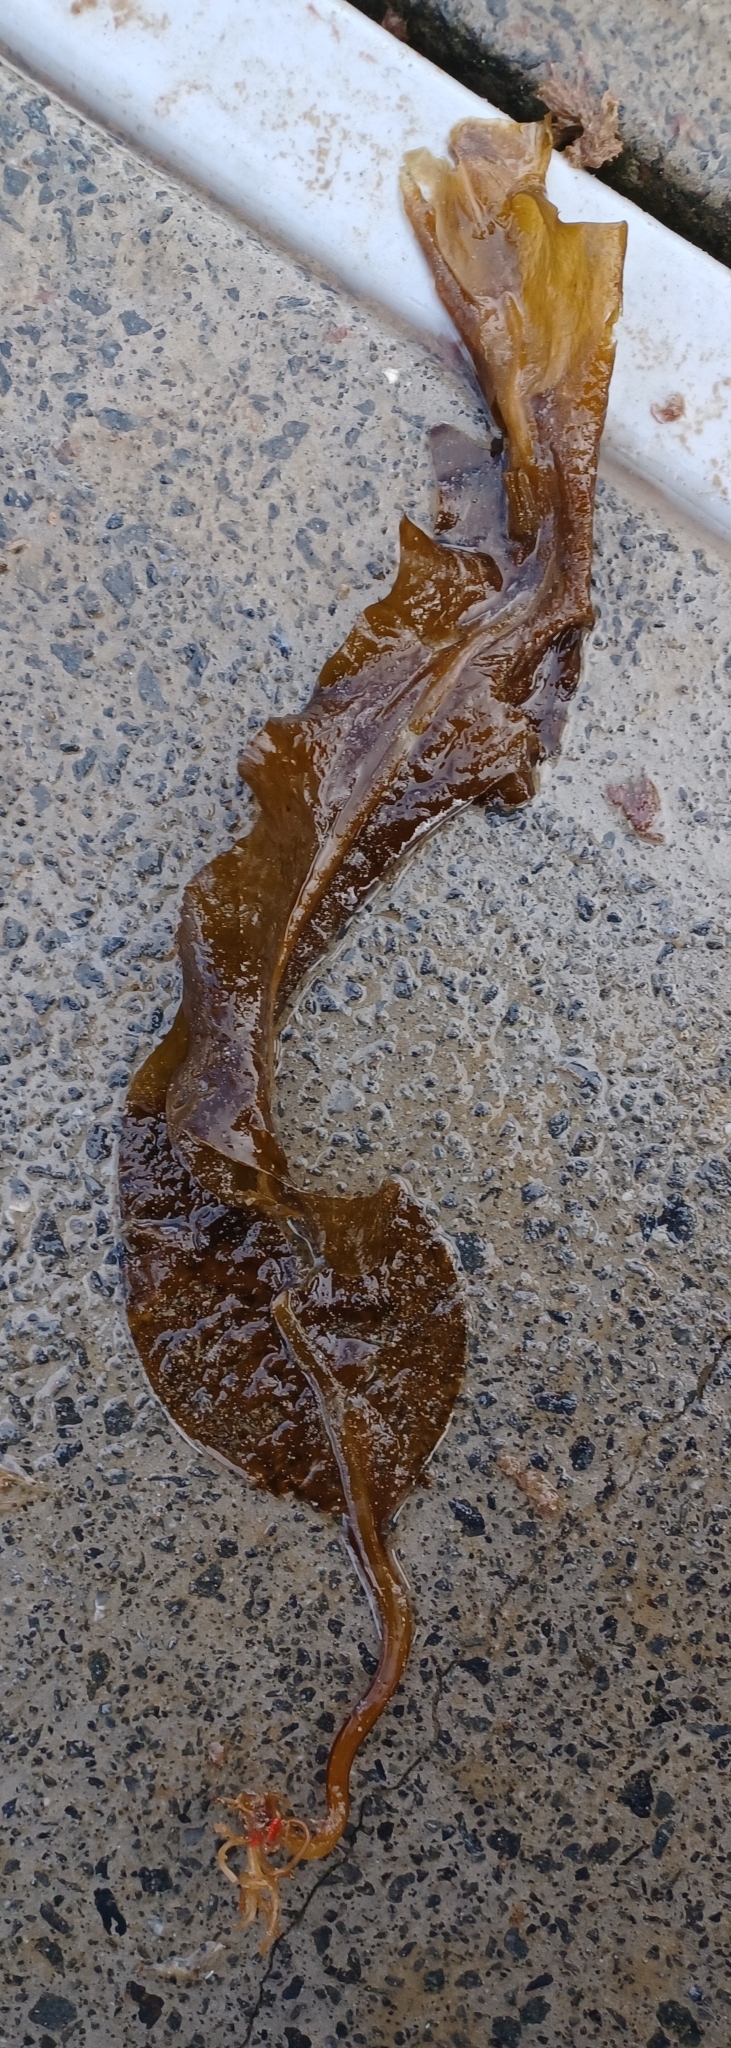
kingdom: Chromista
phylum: Ochrophyta
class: Phaeophyceae
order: Laminariales
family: Alariaceae
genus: Undaria
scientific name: Undaria pinnatifida
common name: Asian kelp
